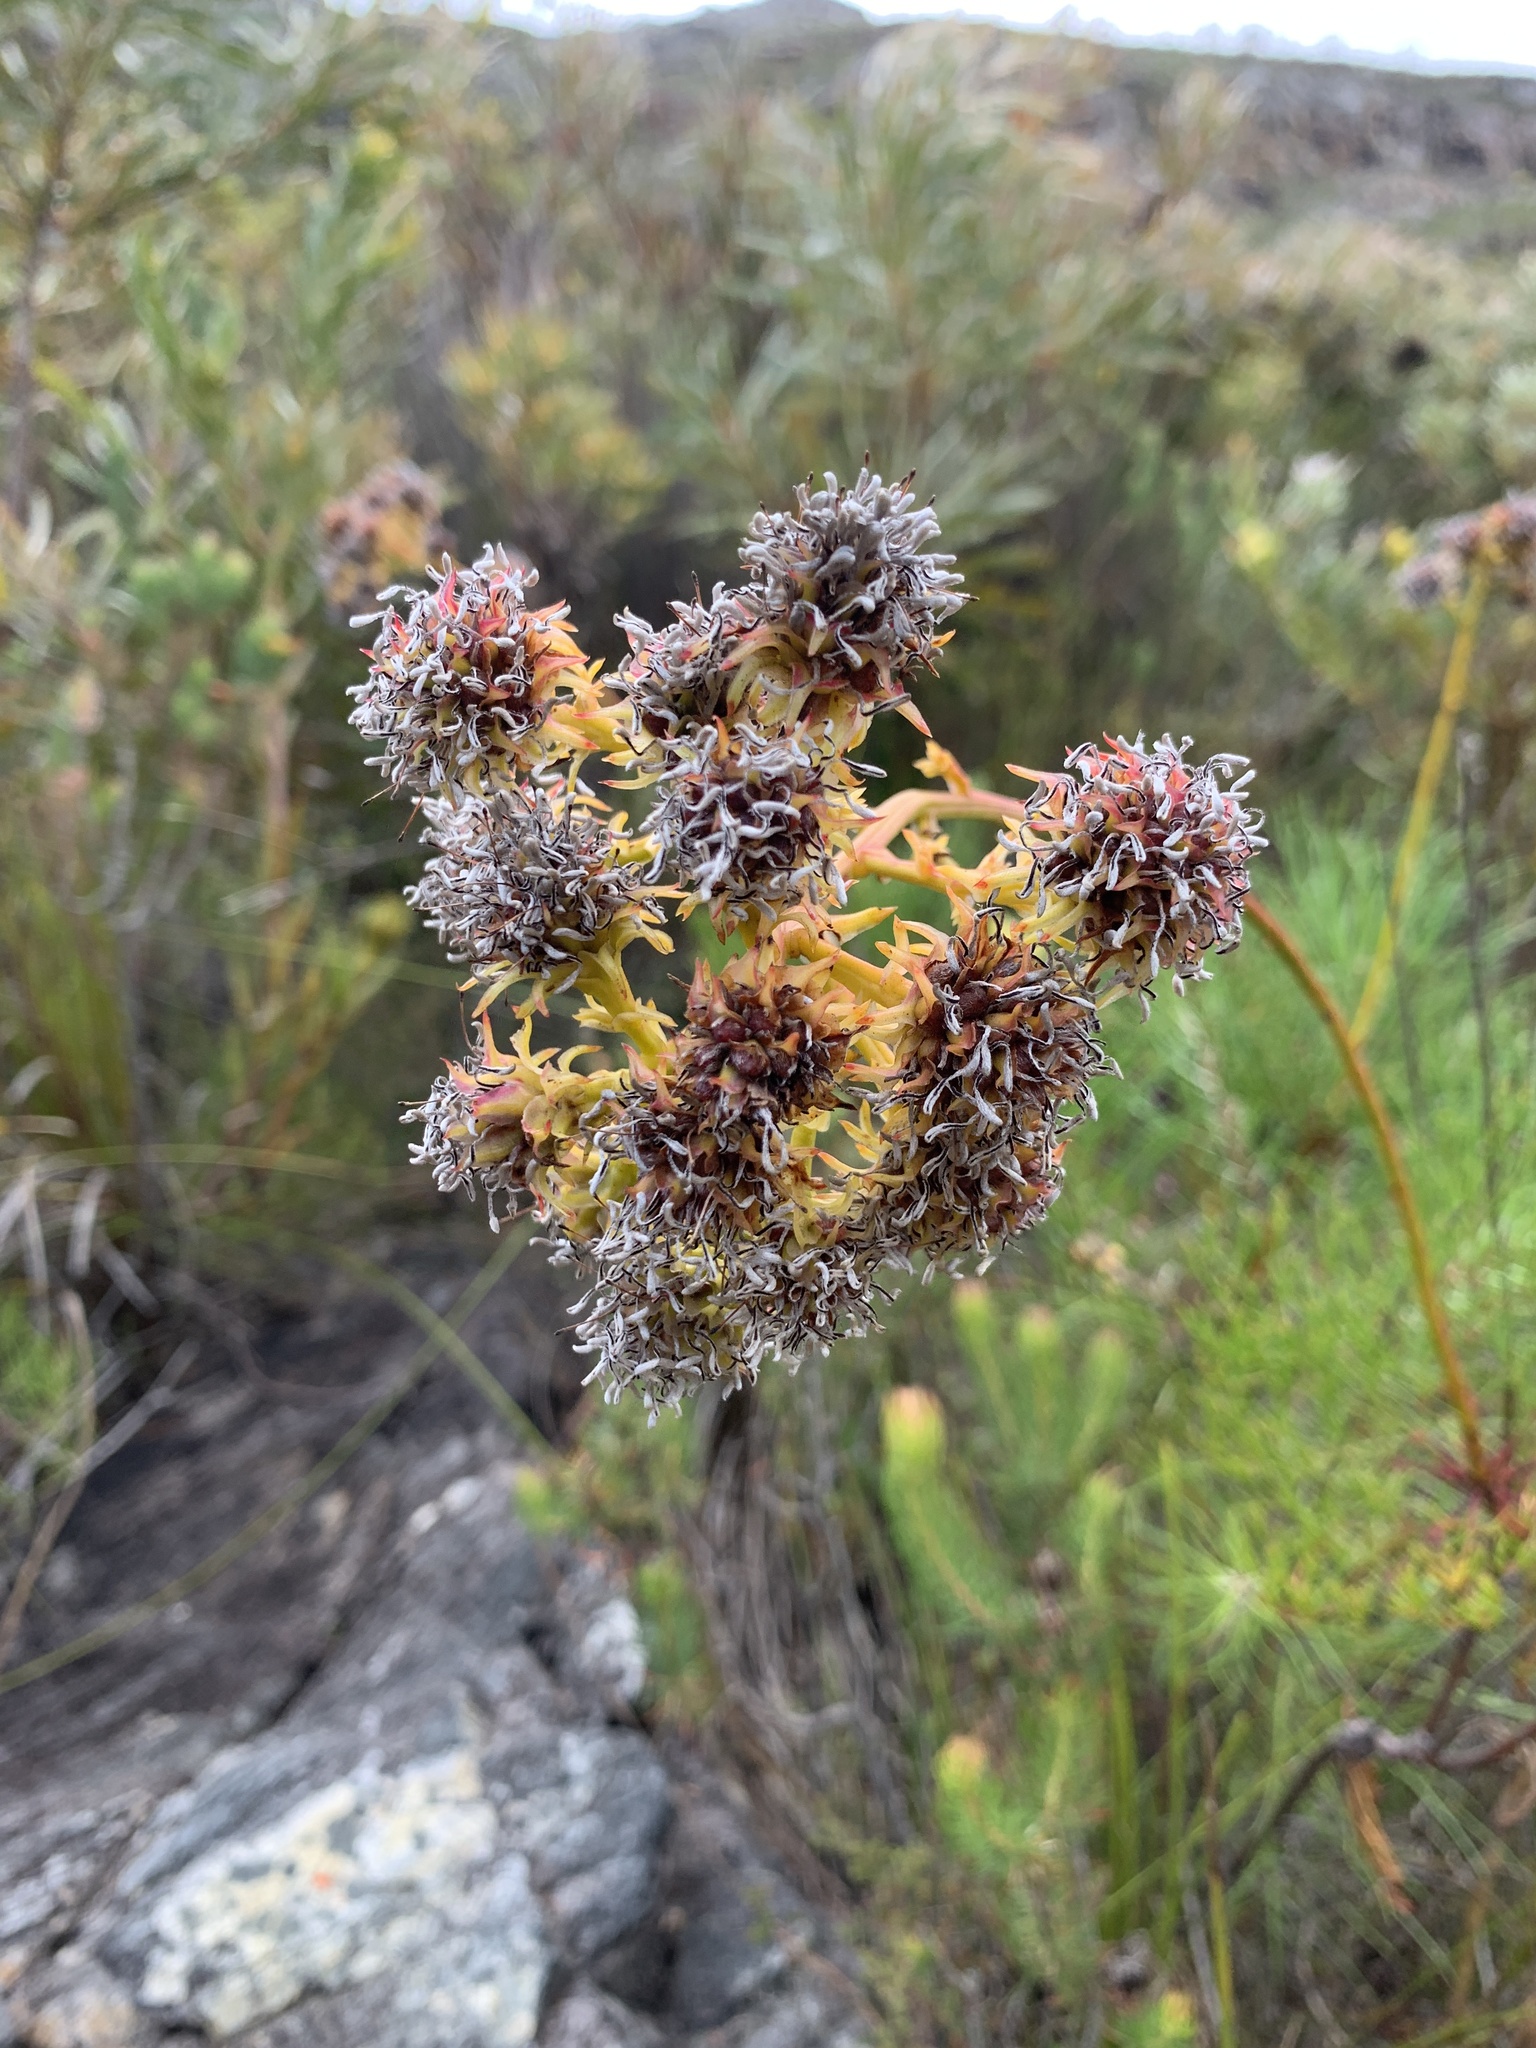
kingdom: Plantae
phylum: Tracheophyta
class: Magnoliopsida
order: Proteales
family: Proteaceae
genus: Serruria
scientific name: Serruria elongata
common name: Long-stalk spiderhead
